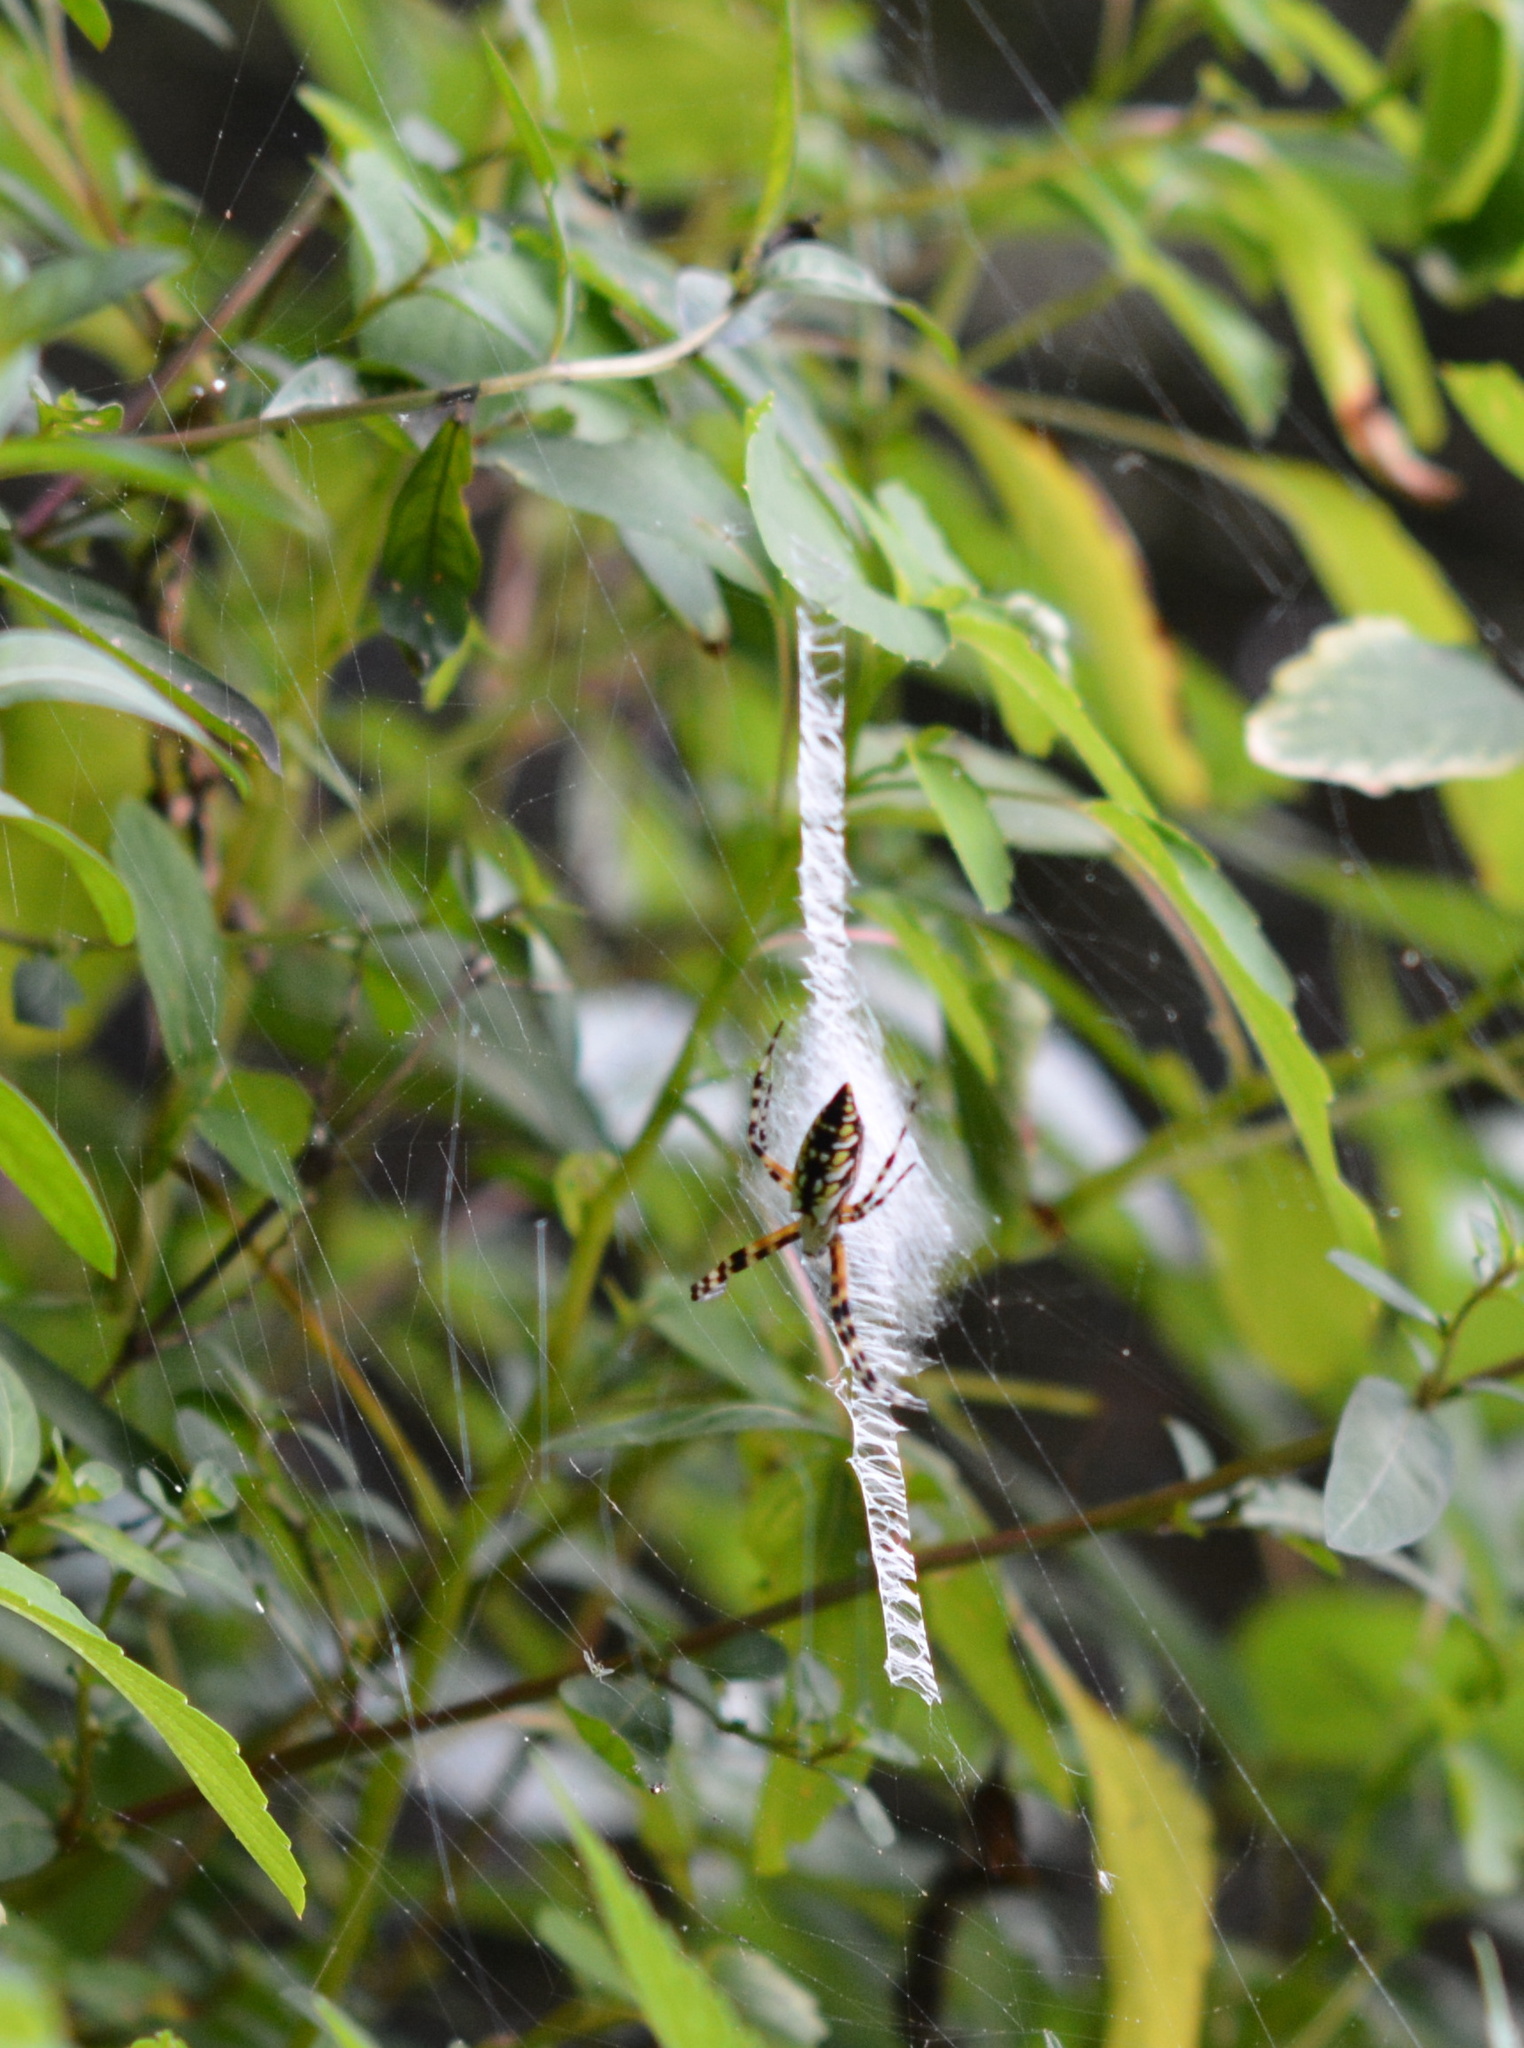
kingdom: Animalia
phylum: Arthropoda
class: Arachnida
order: Araneae
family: Araneidae
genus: Argiope
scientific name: Argiope aurantia
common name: Orb weavers
